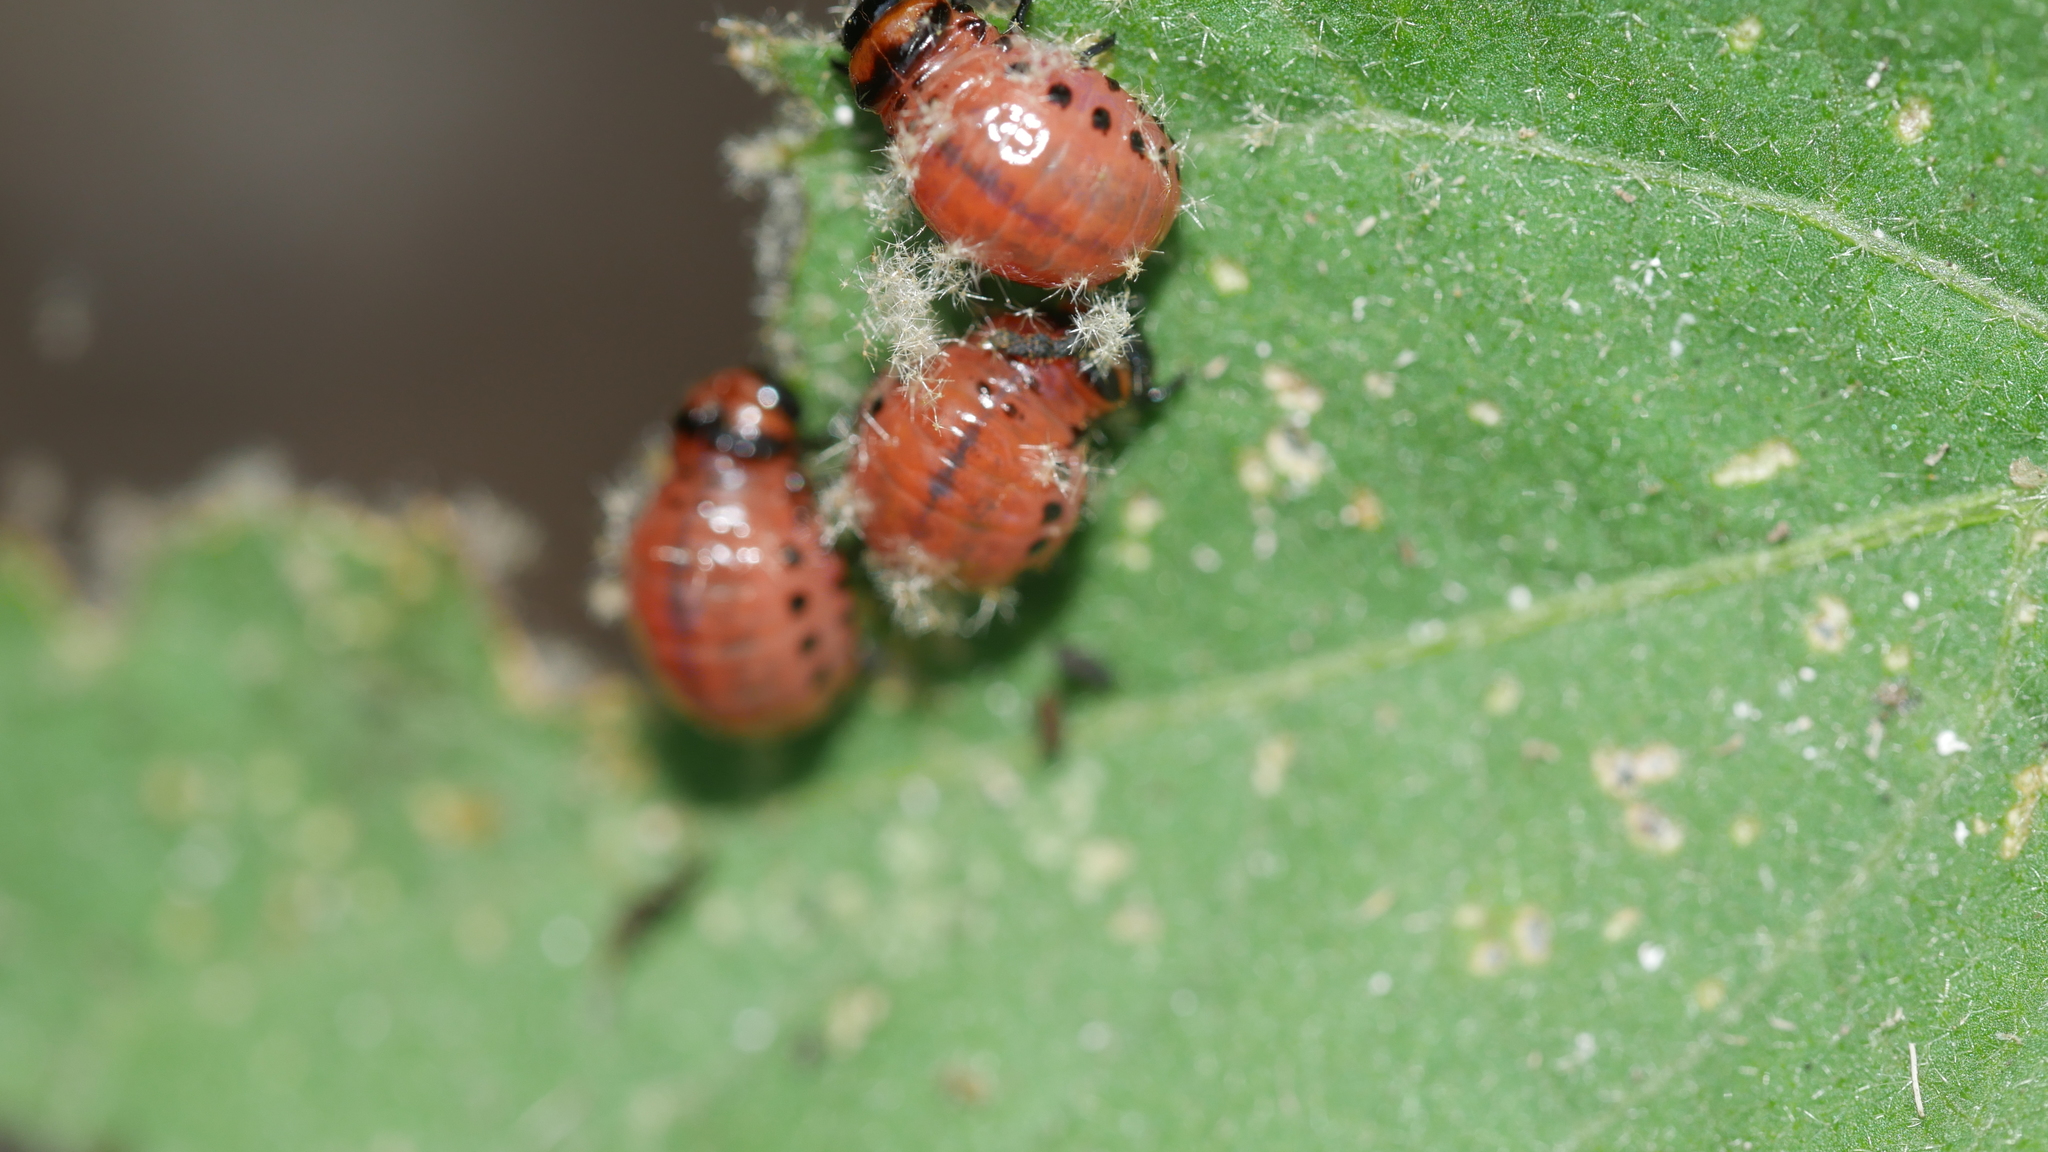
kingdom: Animalia
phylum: Arthropoda
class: Insecta
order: Coleoptera
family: Chrysomelidae
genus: Leptinotarsa
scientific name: Leptinotarsa decemlineata
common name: Colorado potato beetle
